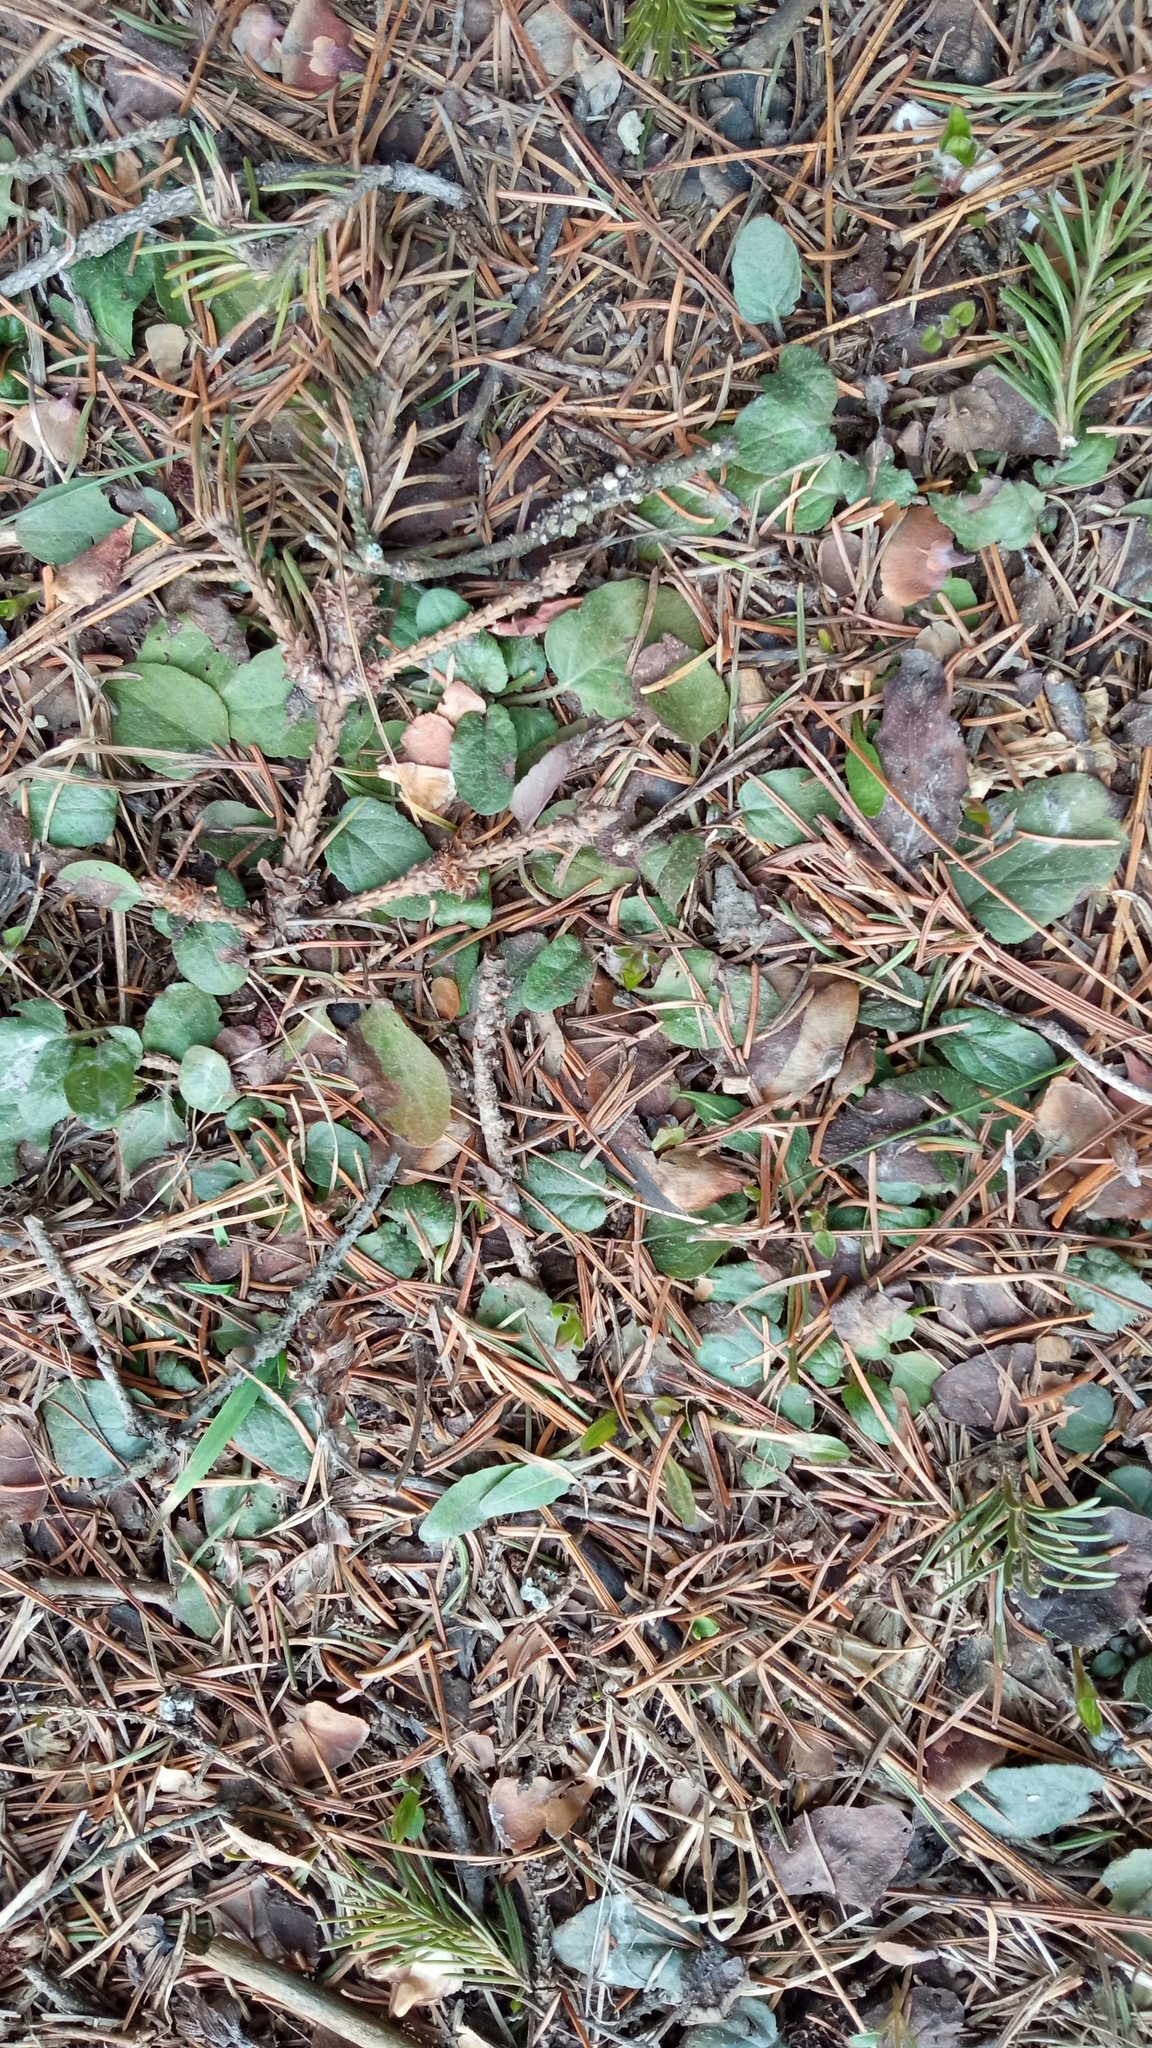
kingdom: Plantae
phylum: Tracheophyta
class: Magnoliopsida
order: Lamiales
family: Lamiaceae
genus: Prunella
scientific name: Prunella vulgaris
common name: Heal-all
